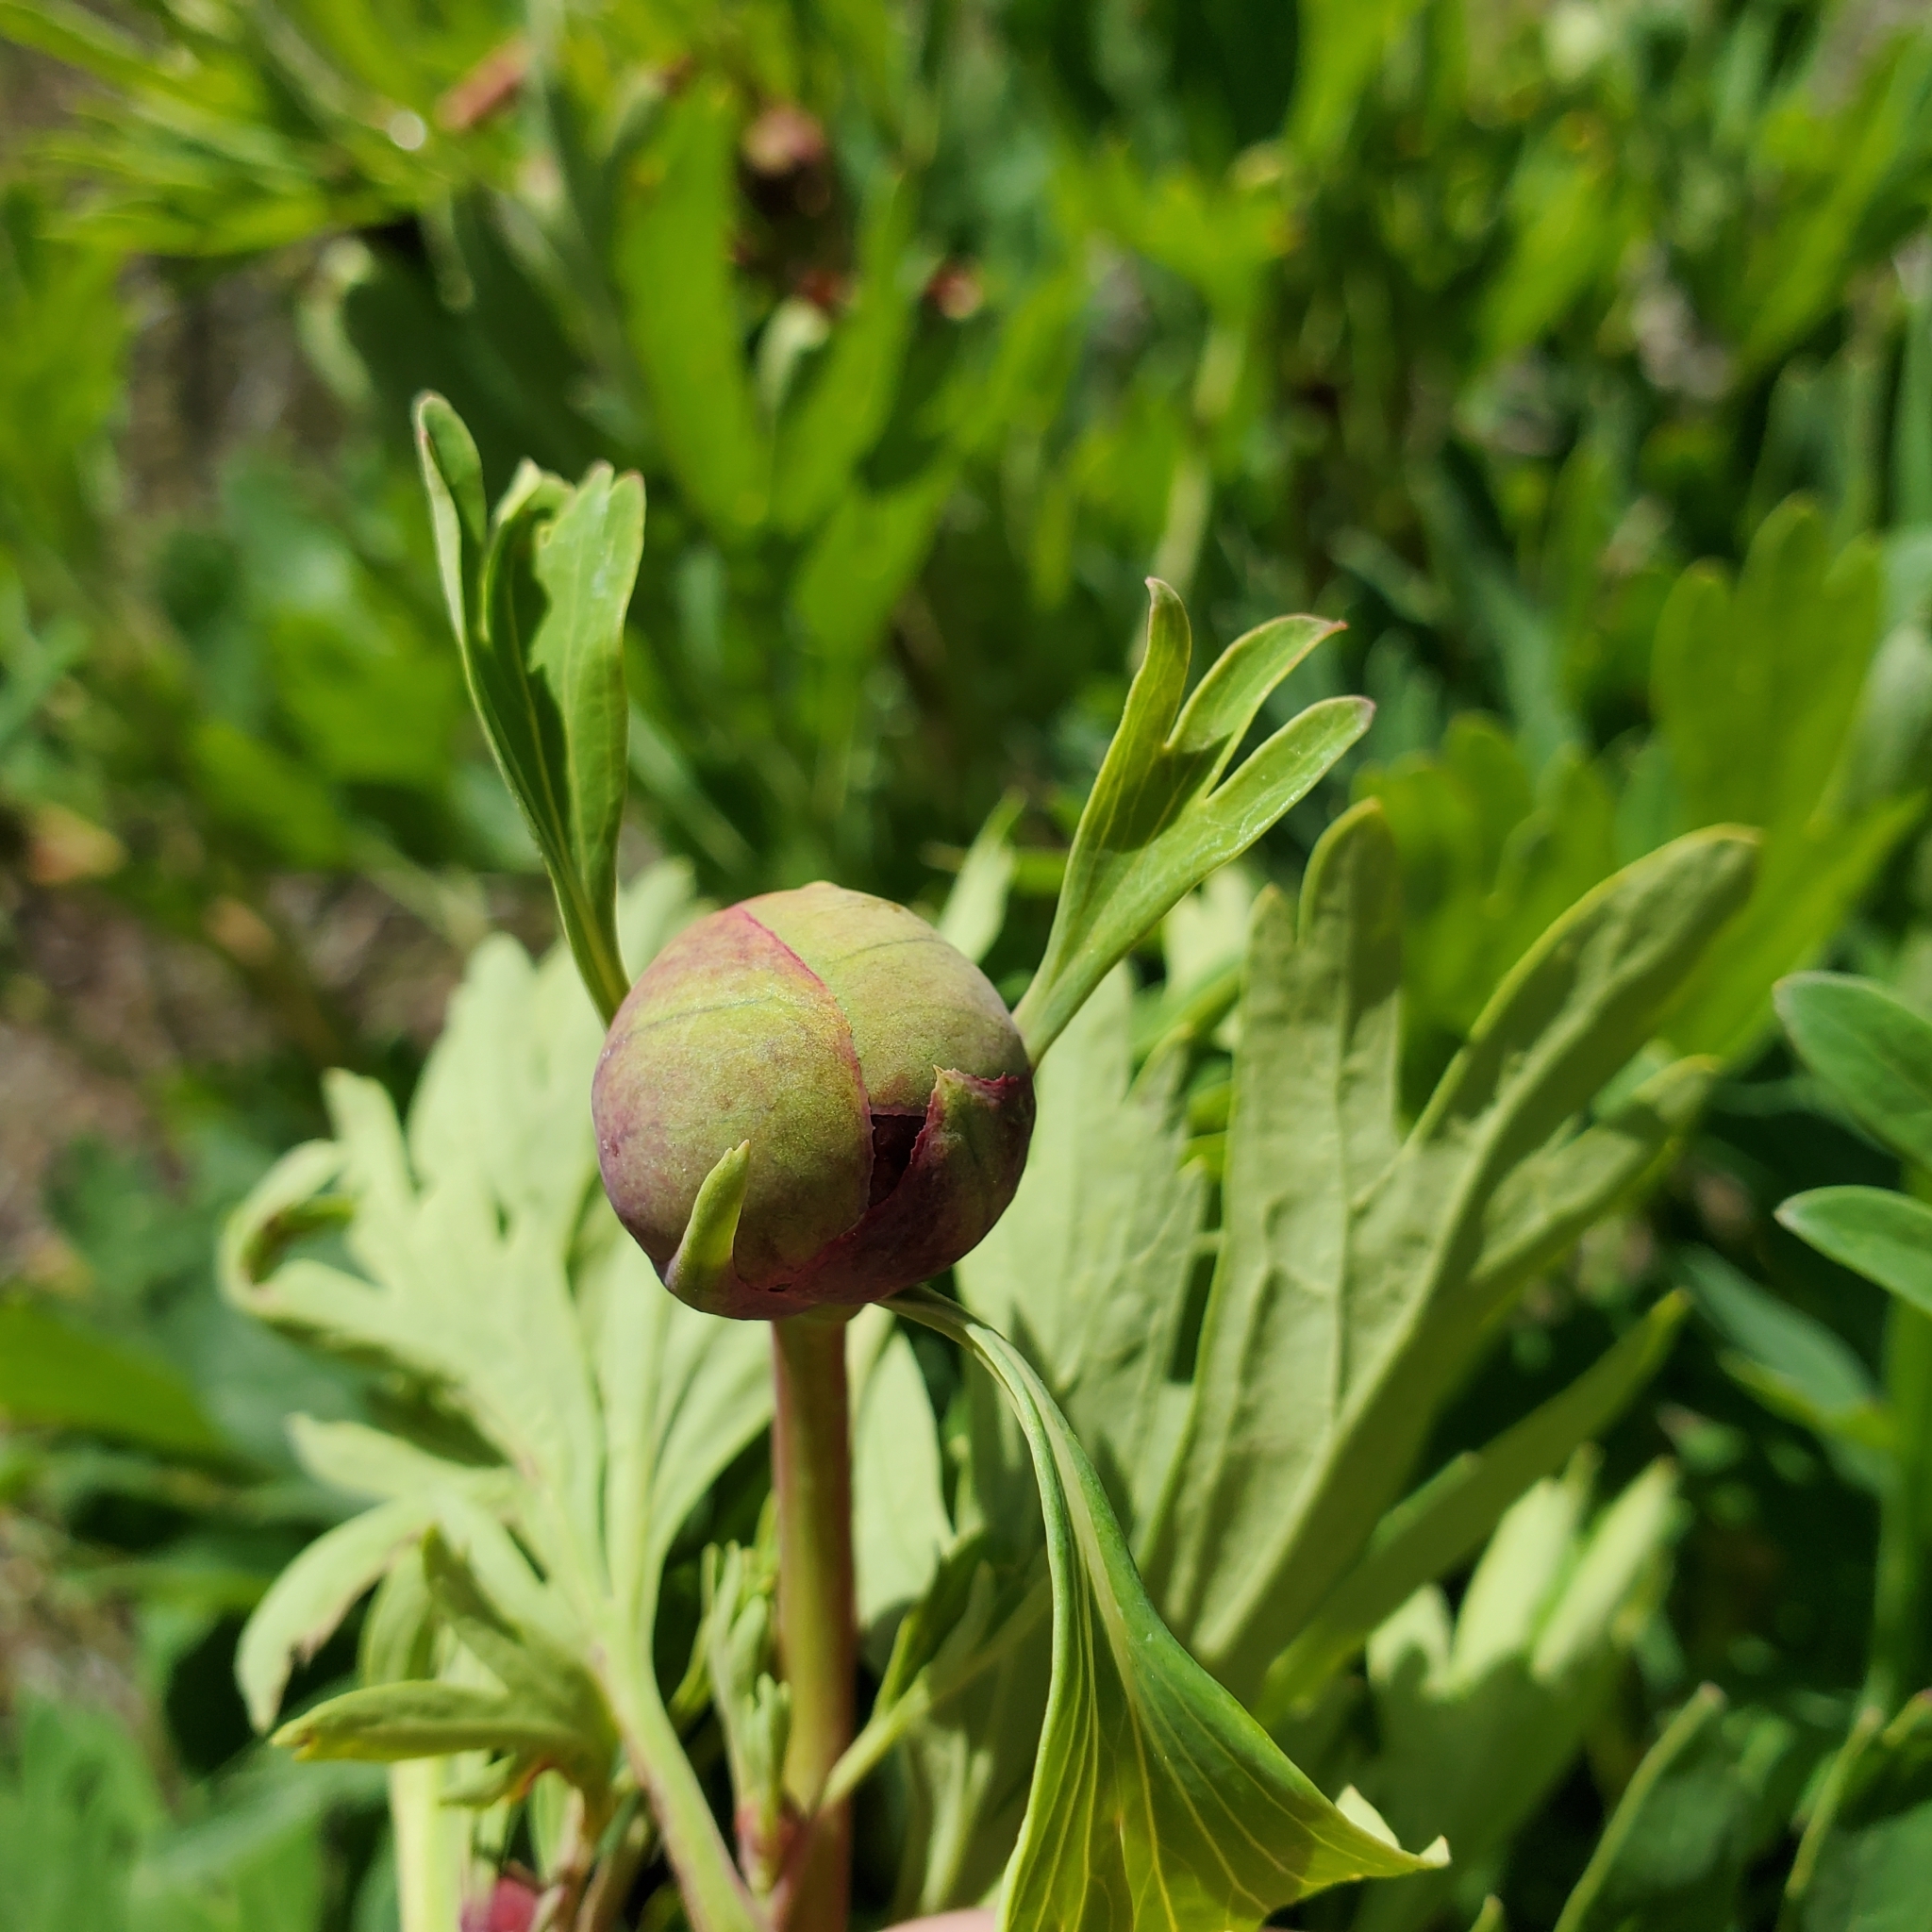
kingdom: Plantae
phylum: Tracheophyta
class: Magnoliopsida
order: Saxifragales
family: Paeoniaceae
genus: Paeonia
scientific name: Paeonia californica
